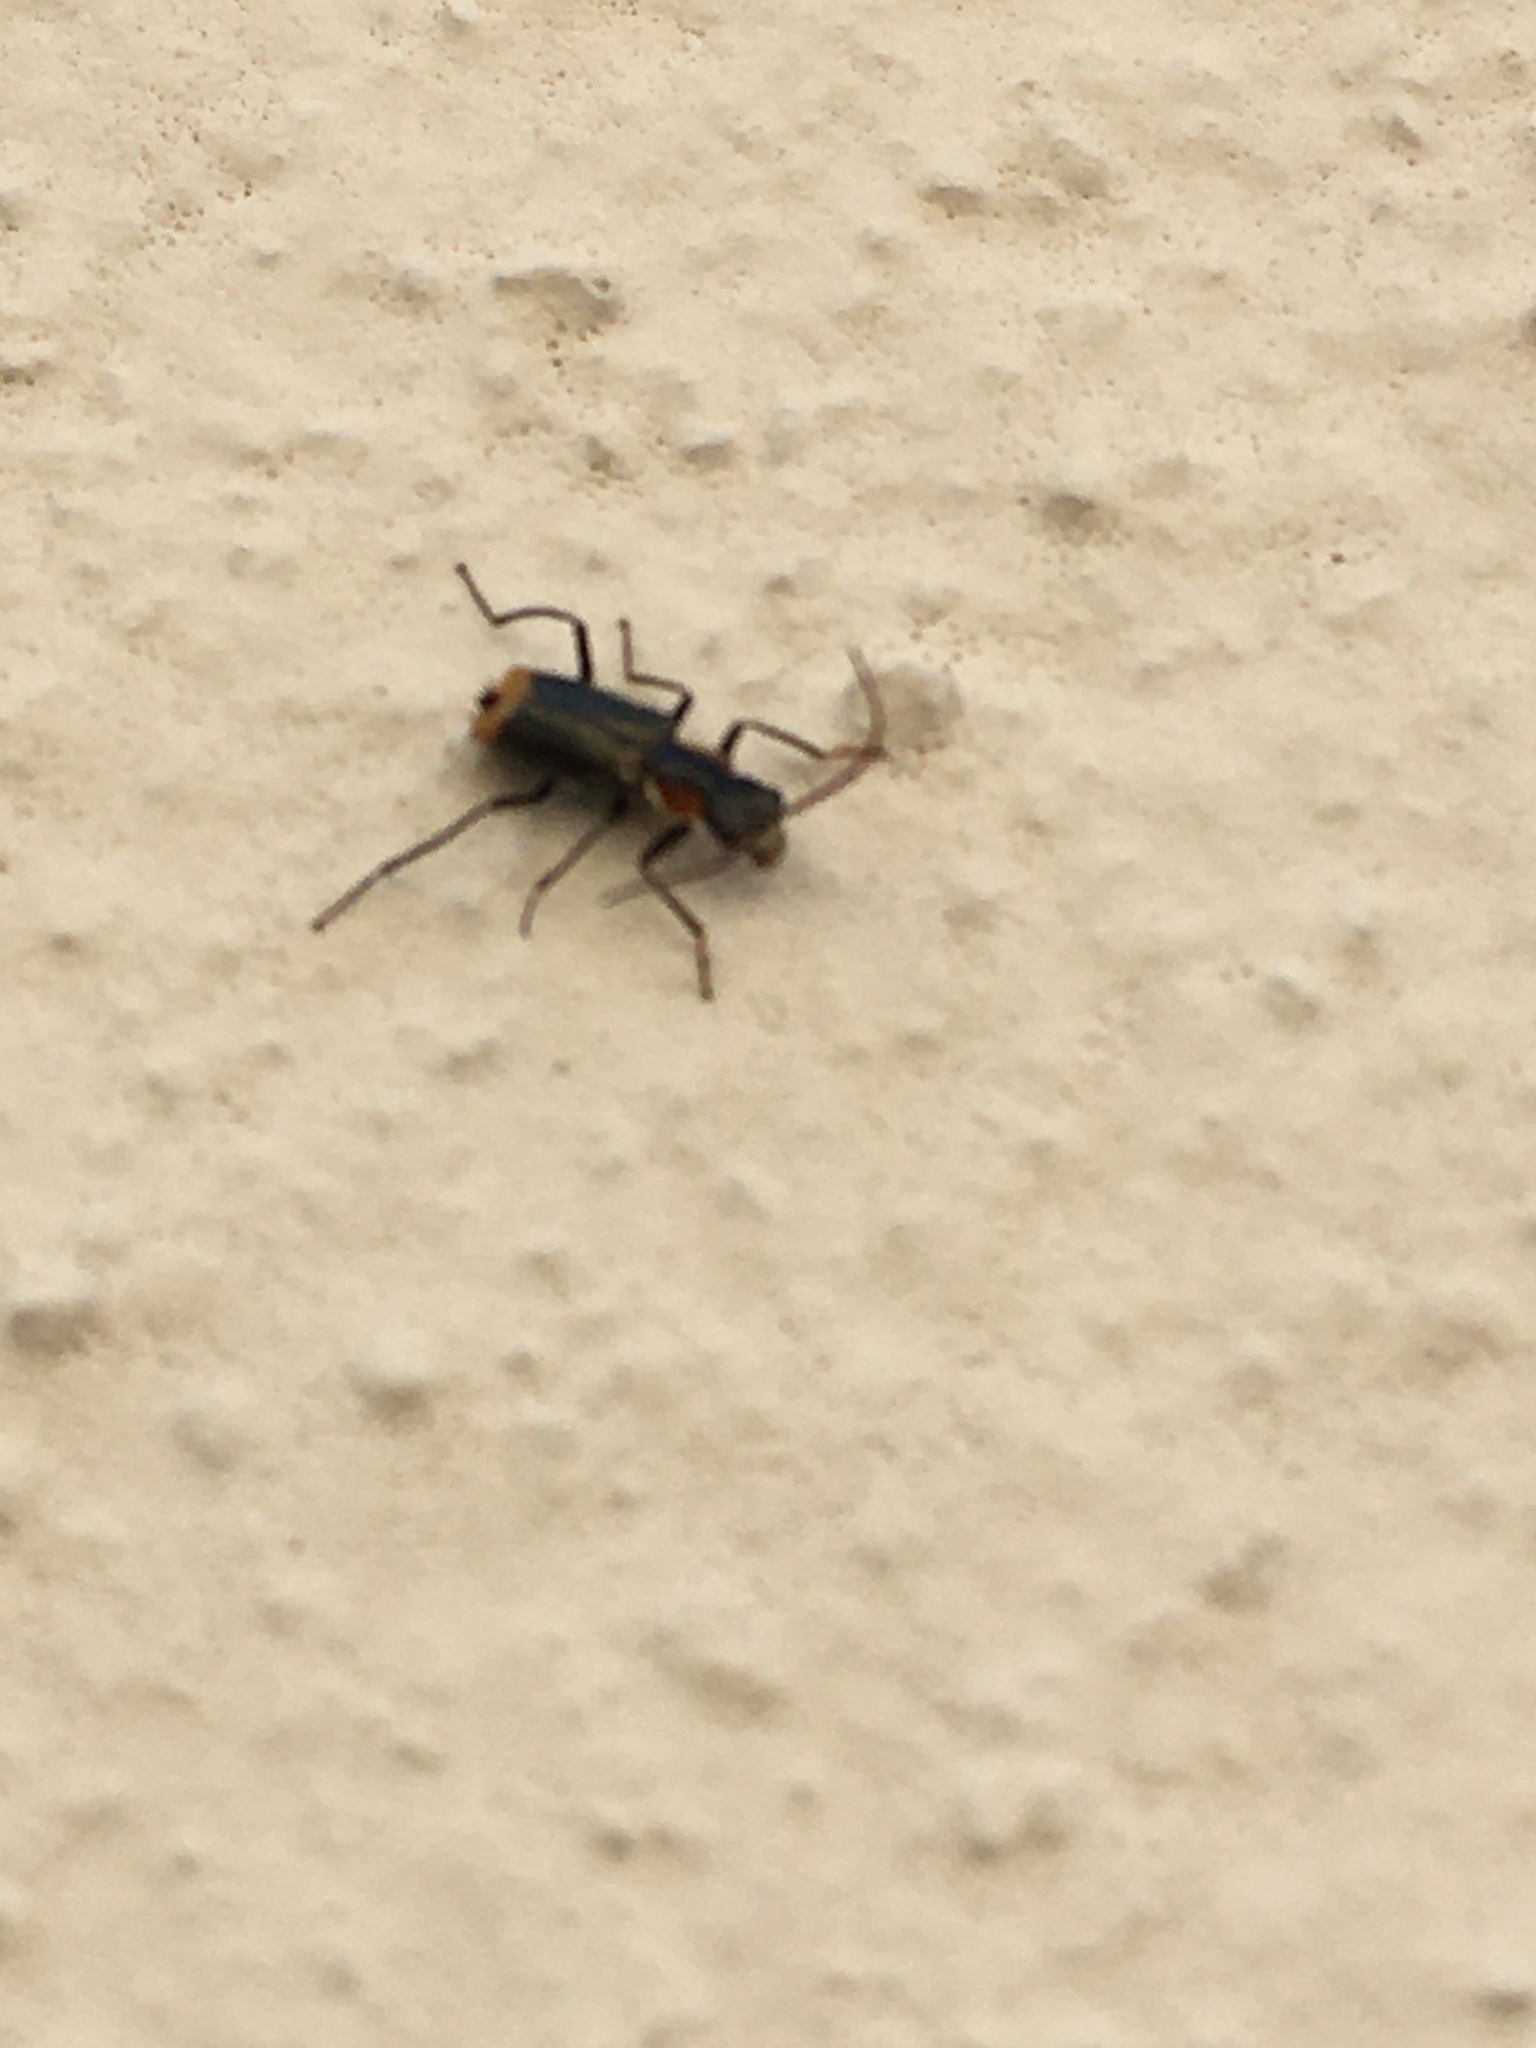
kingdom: Animalia
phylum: Arthropoda
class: Insecta
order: Coleoptera
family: Melyridae
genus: Axinotarsus
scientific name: Axinotarsus pulicarius
